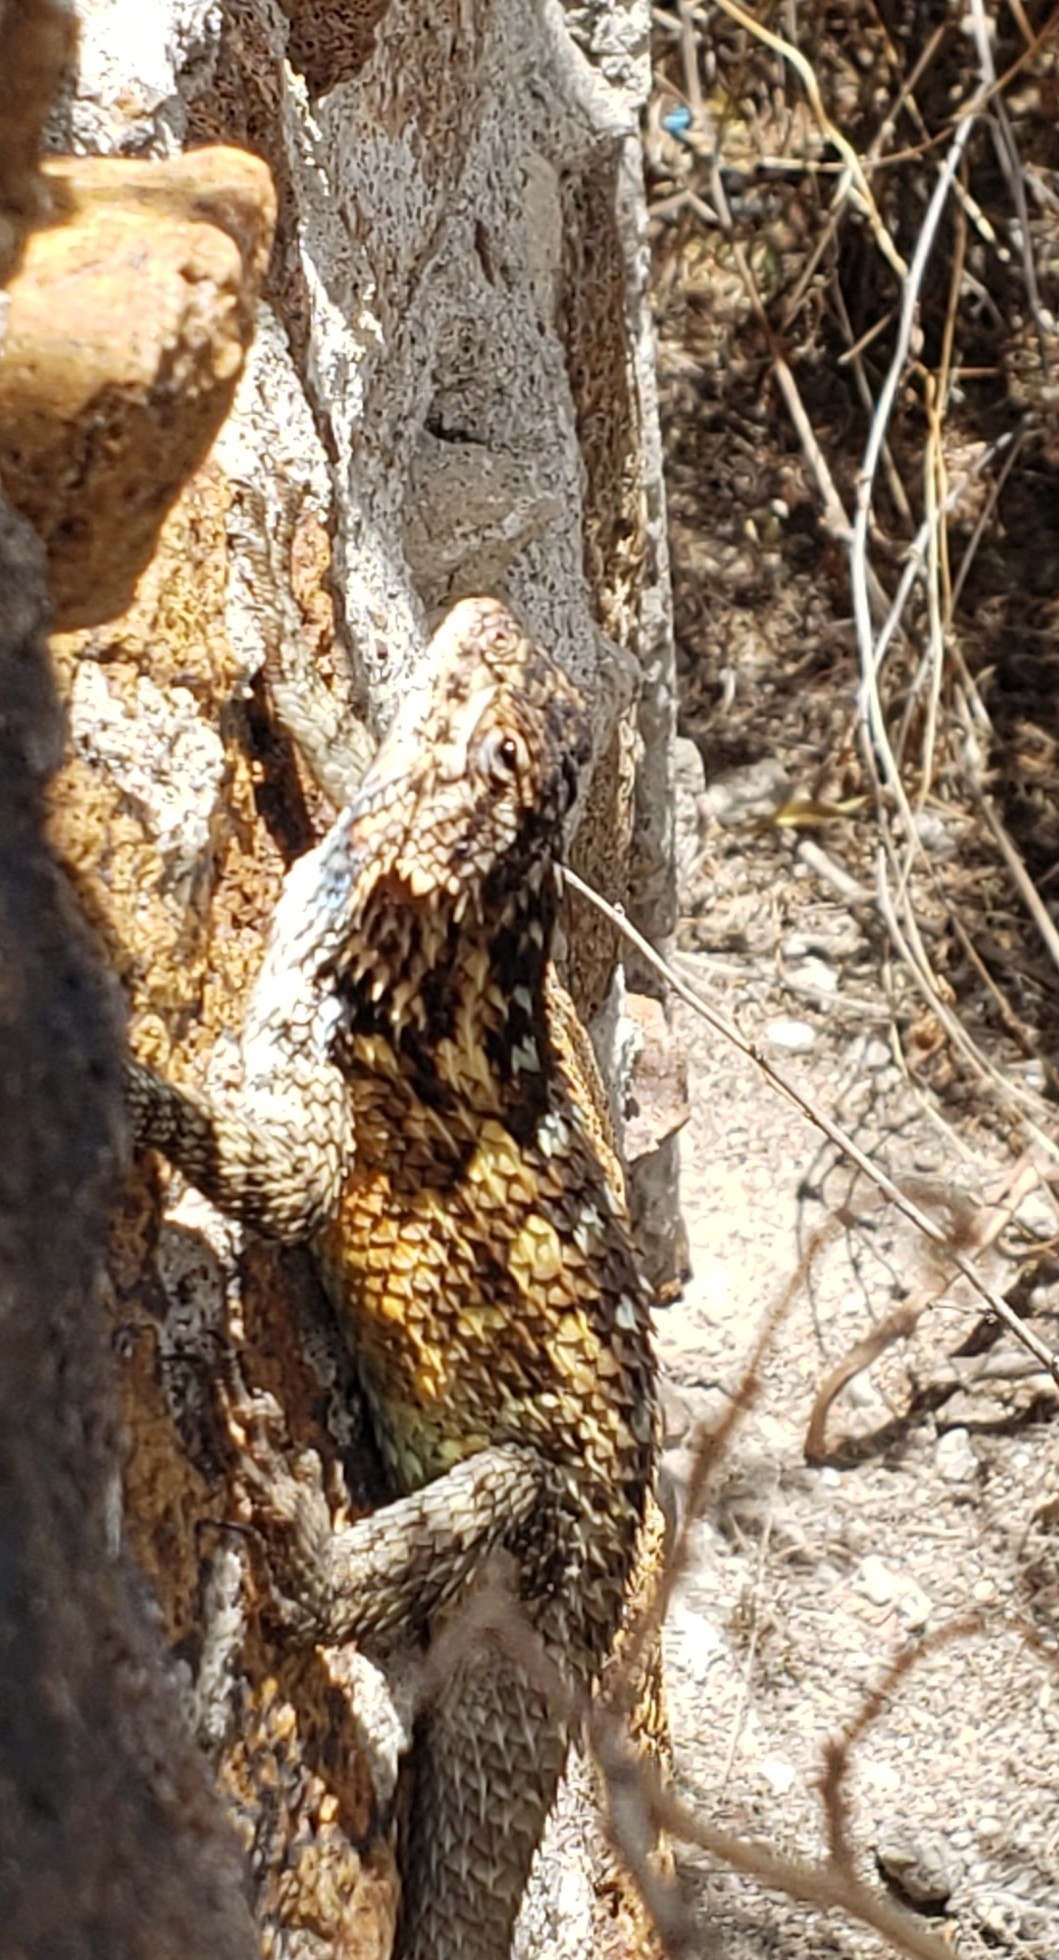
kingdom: Animalia
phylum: Chordata
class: Squamata
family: Phrynosomatidae
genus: Sceloporus
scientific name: Sceloporus spinosus
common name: Blue-spotted spiny lizard [caeruleopunctatus]
